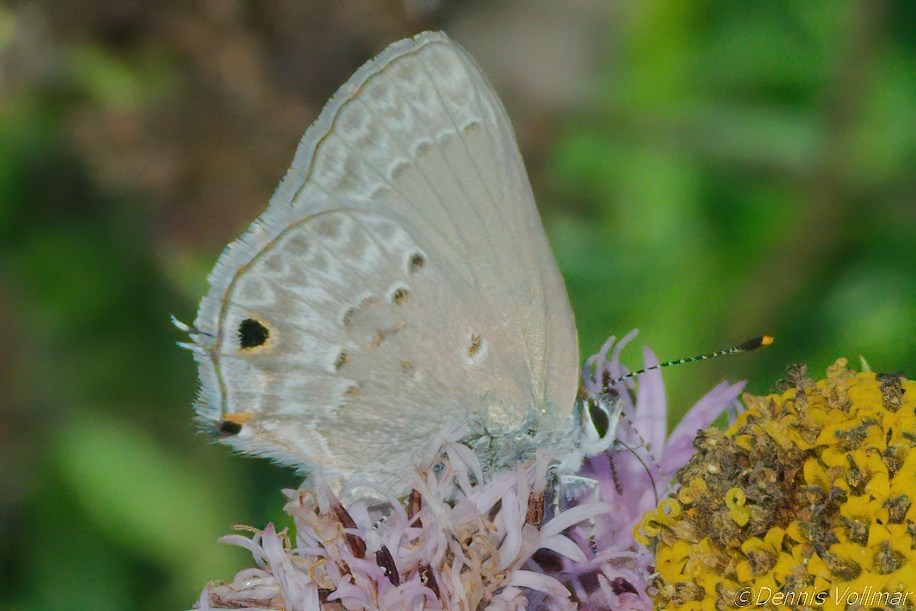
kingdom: Animalia
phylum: Arthropoda
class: Insecta
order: Lepidoptera
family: Lycaenidae
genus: Callicista
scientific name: Callicista columella
